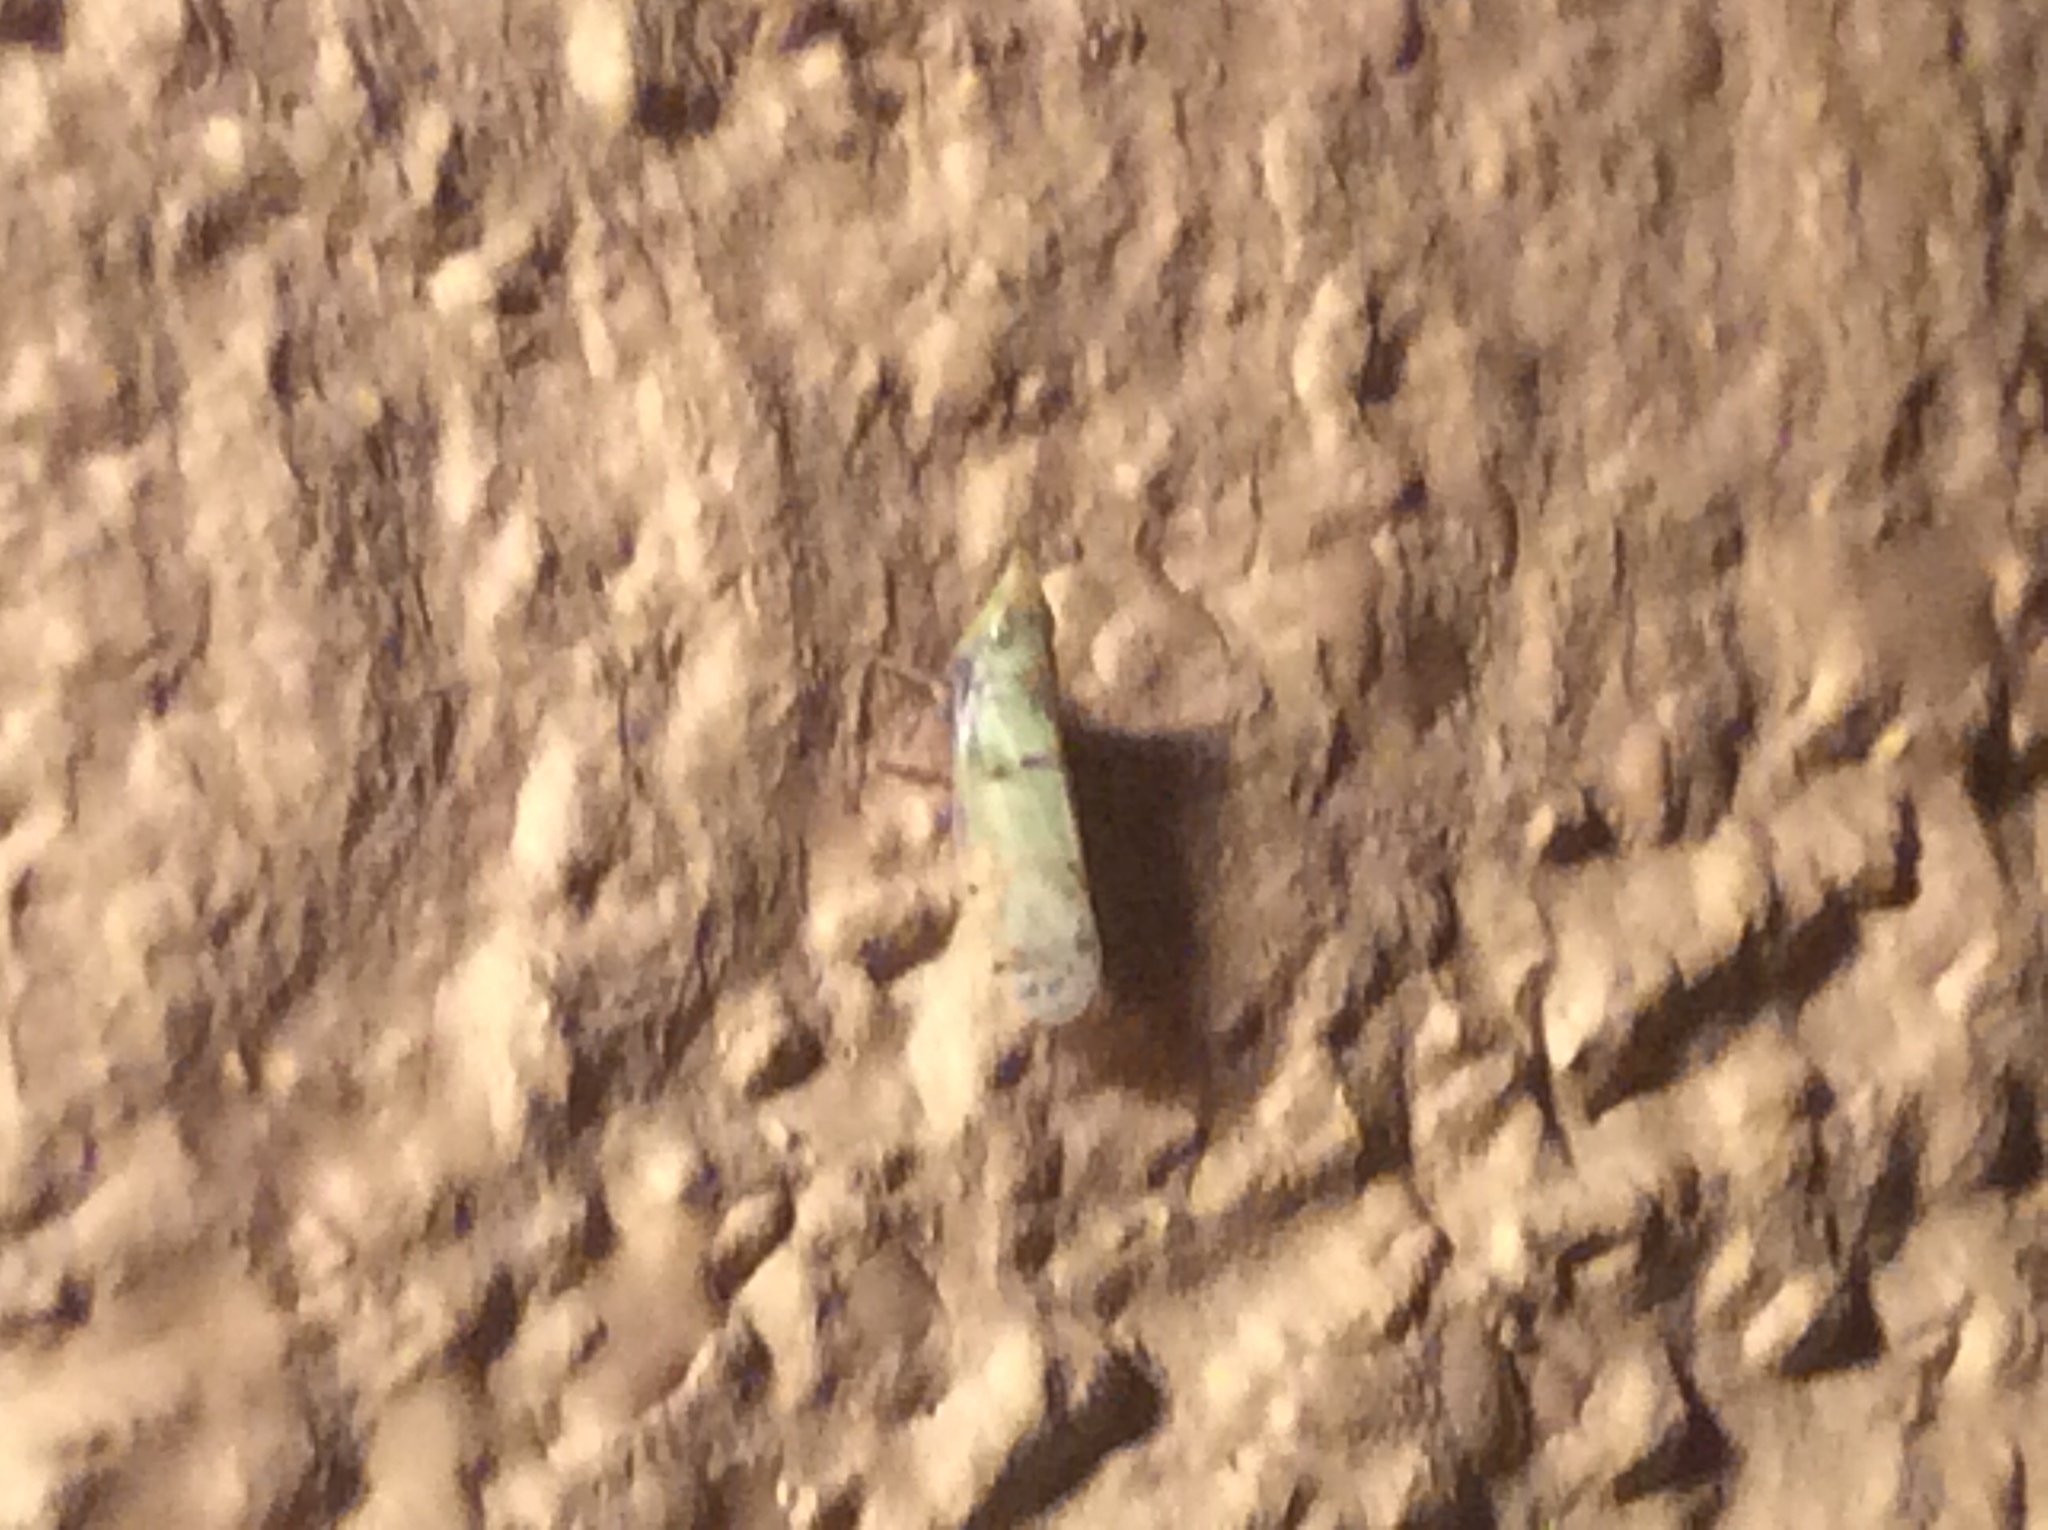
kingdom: Animalia
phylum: Arthropoda
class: Insecta
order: Hemiptera
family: Cicadellidae
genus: Japananus
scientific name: Japananus hyalinus
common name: The japanese maple leafhopper
